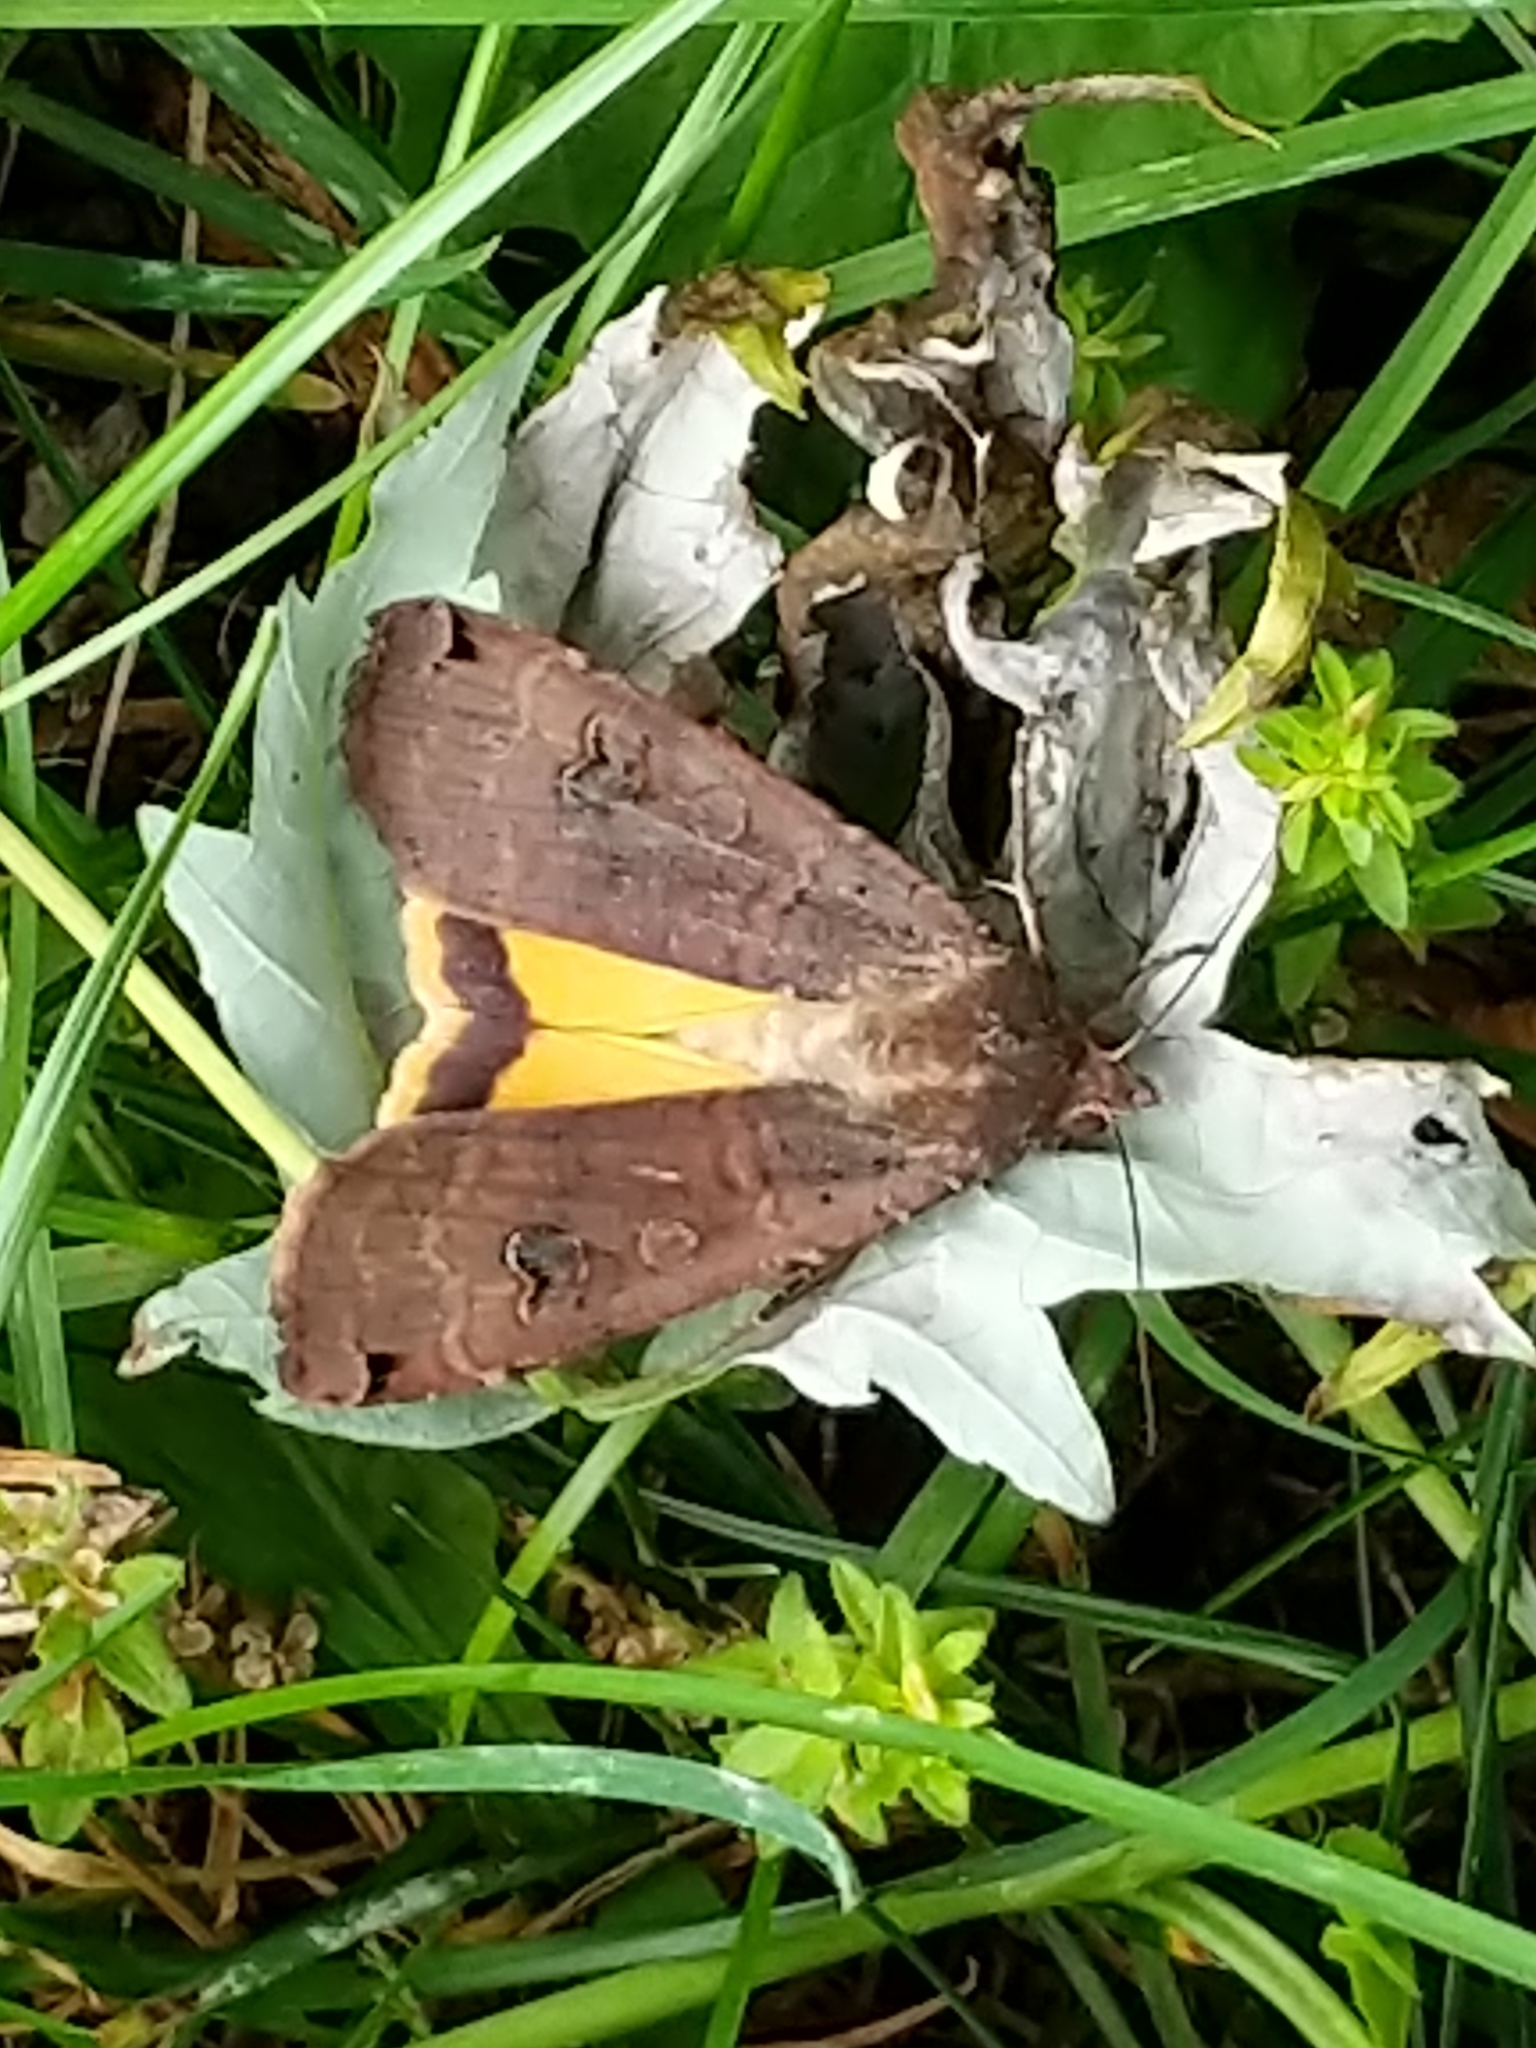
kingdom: Animalia
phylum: Arthropoda
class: Insecta
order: Lepidoptera
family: Noctuidae
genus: Noctua
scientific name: Noctua pronuba
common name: Large yellow underwing
